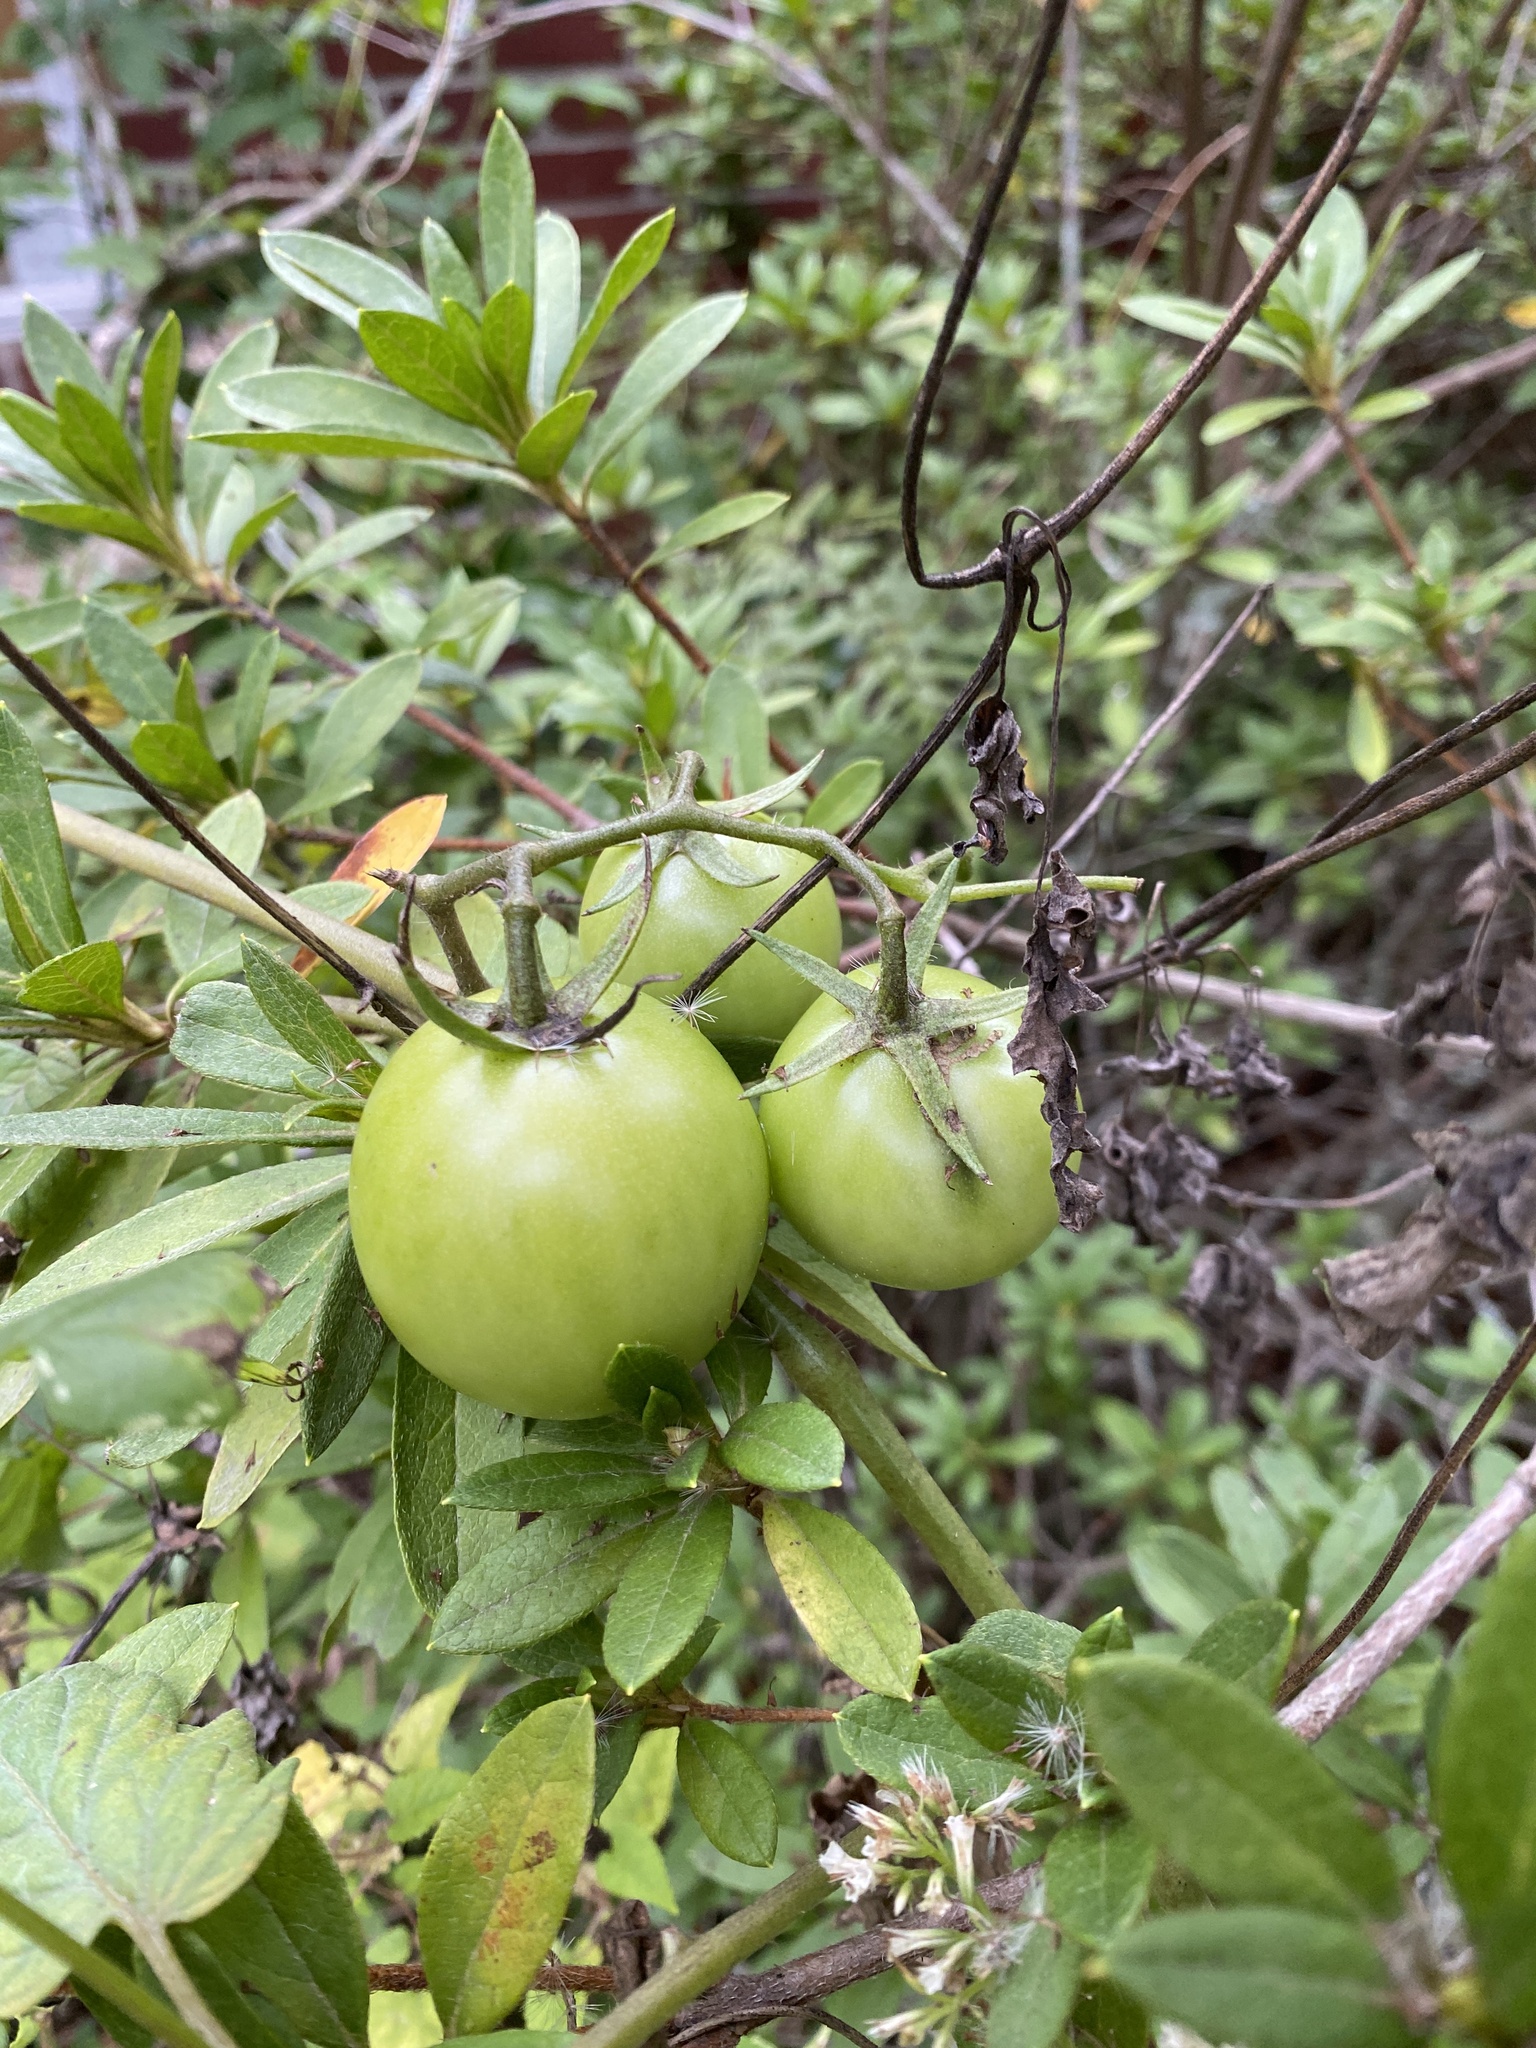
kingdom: Plantae
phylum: Tracheophyta
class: Magnoliopsida
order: Solanales
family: Solanaceae
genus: Solanum
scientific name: Solanum lycopersicum
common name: Garden tomato
